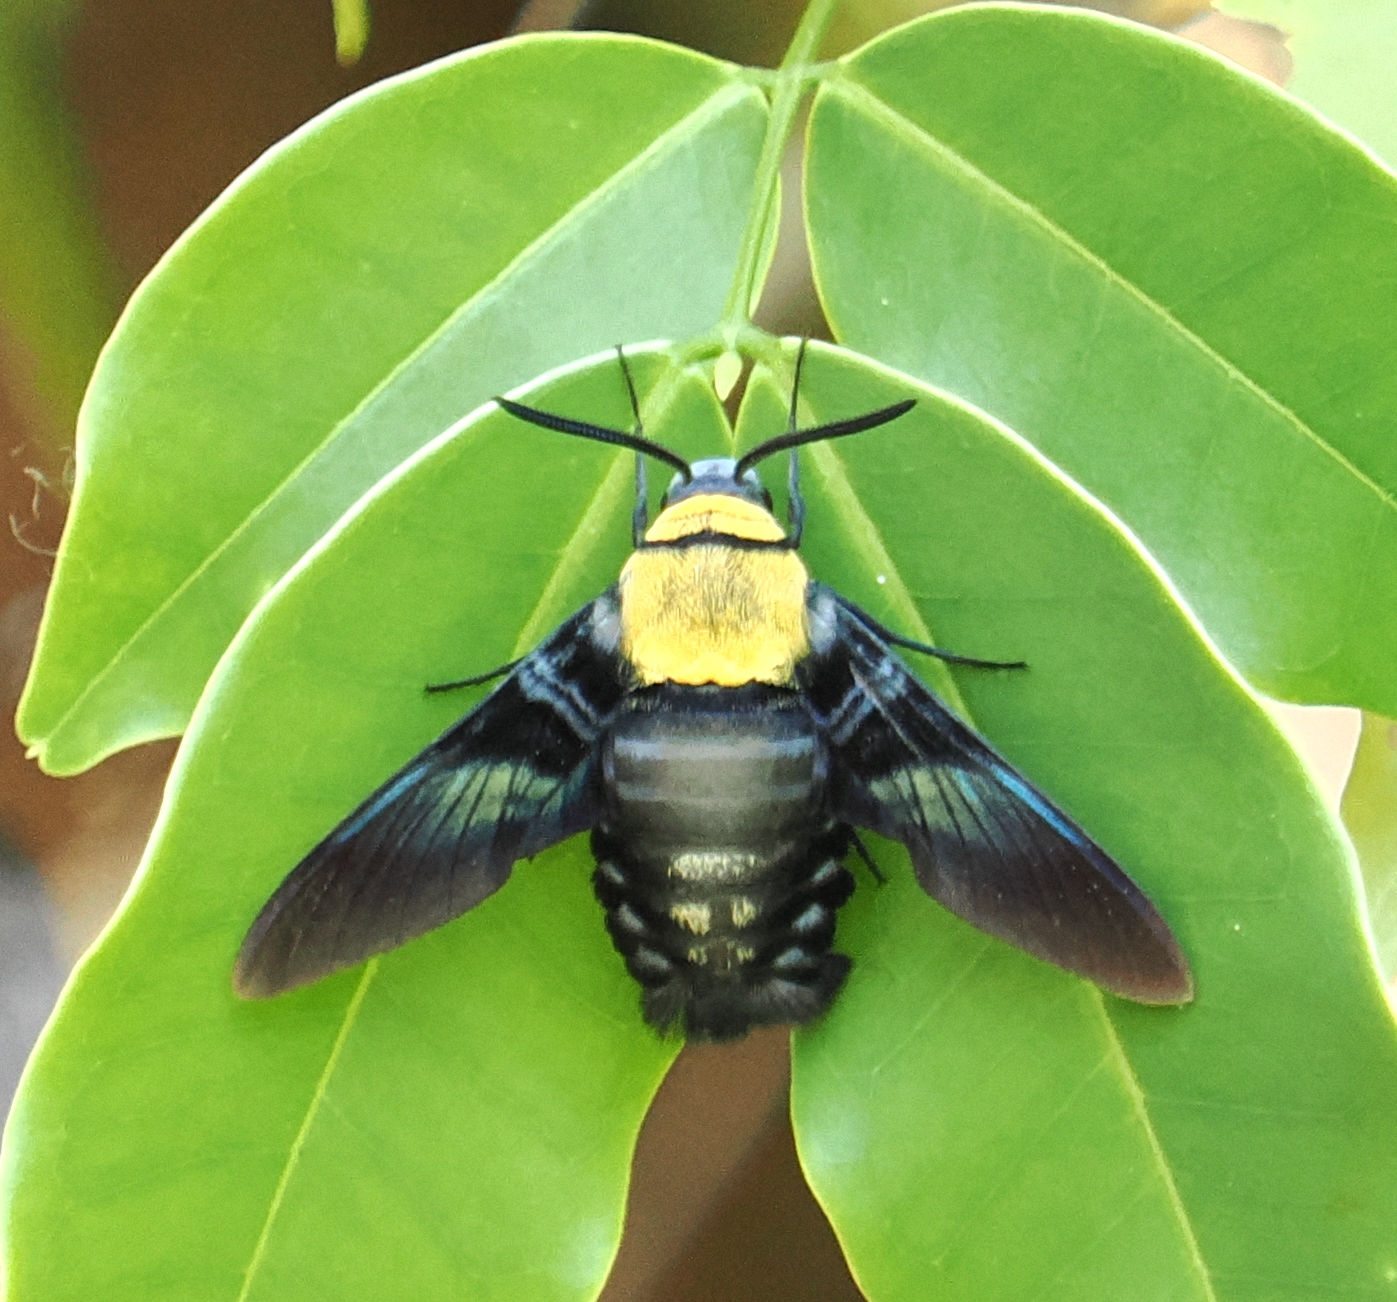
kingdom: Animalia
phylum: Arthropoda
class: Insecta
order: Lepidoptera
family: Sphingidae
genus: Sataspes
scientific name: Sataspes tagalica
